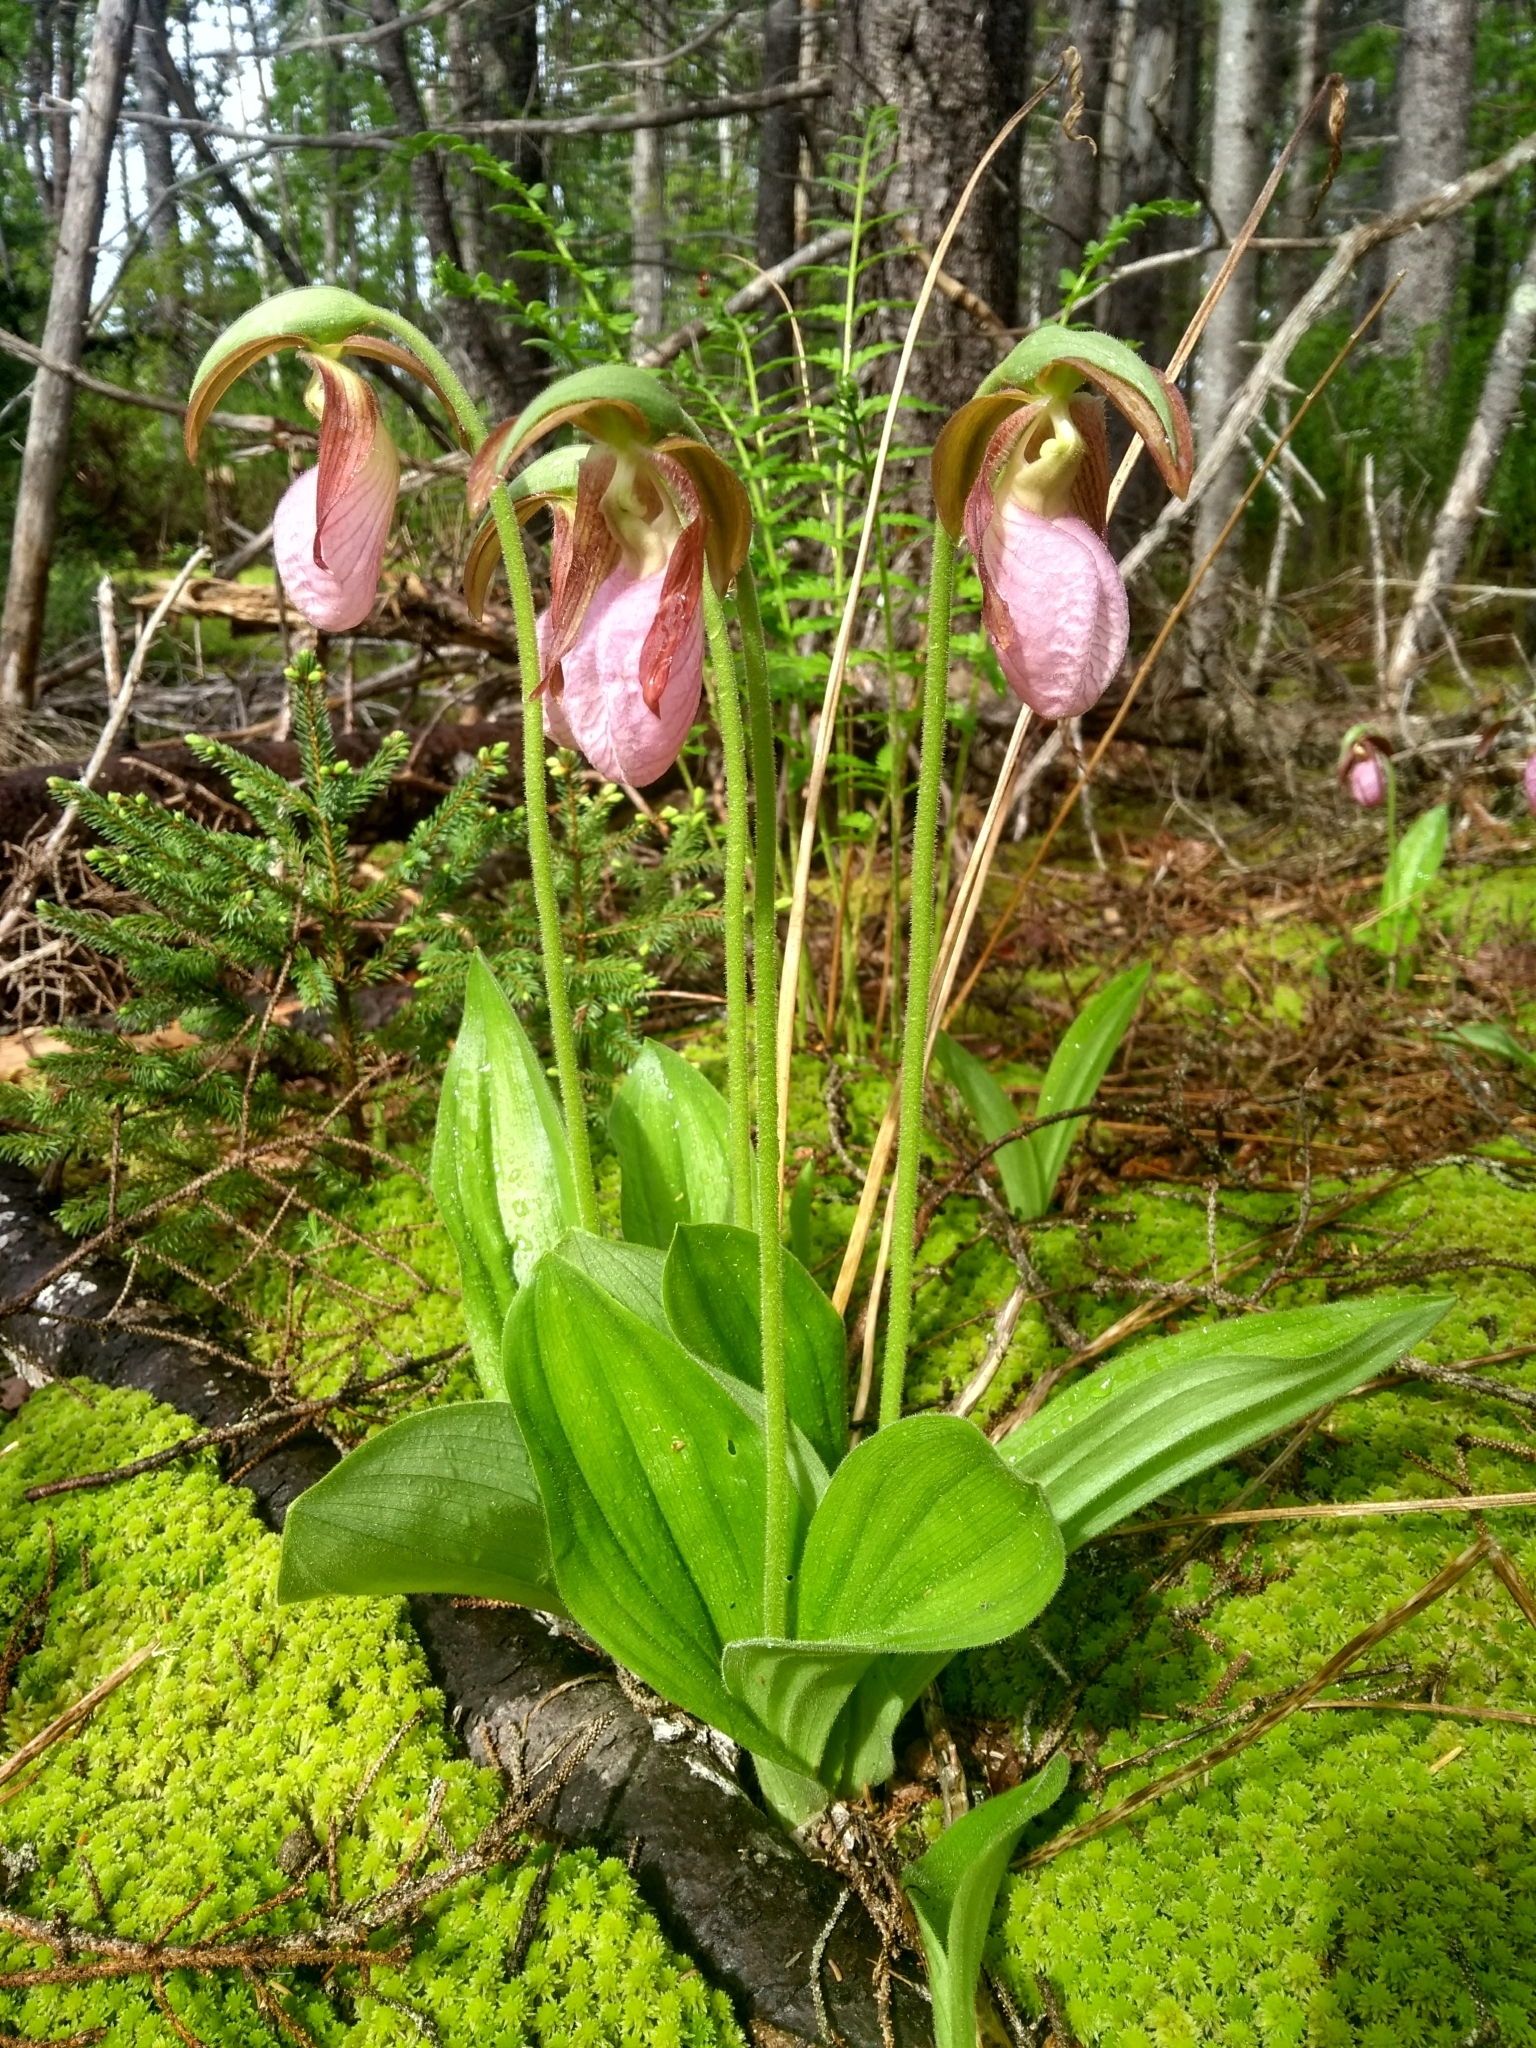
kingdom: Plantae
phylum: Tracheophyta
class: Liliopsida
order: Asparagales
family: Orchidaceae
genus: Cypripedium
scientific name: Cypripedium acaule
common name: Pink lady's-slipper
